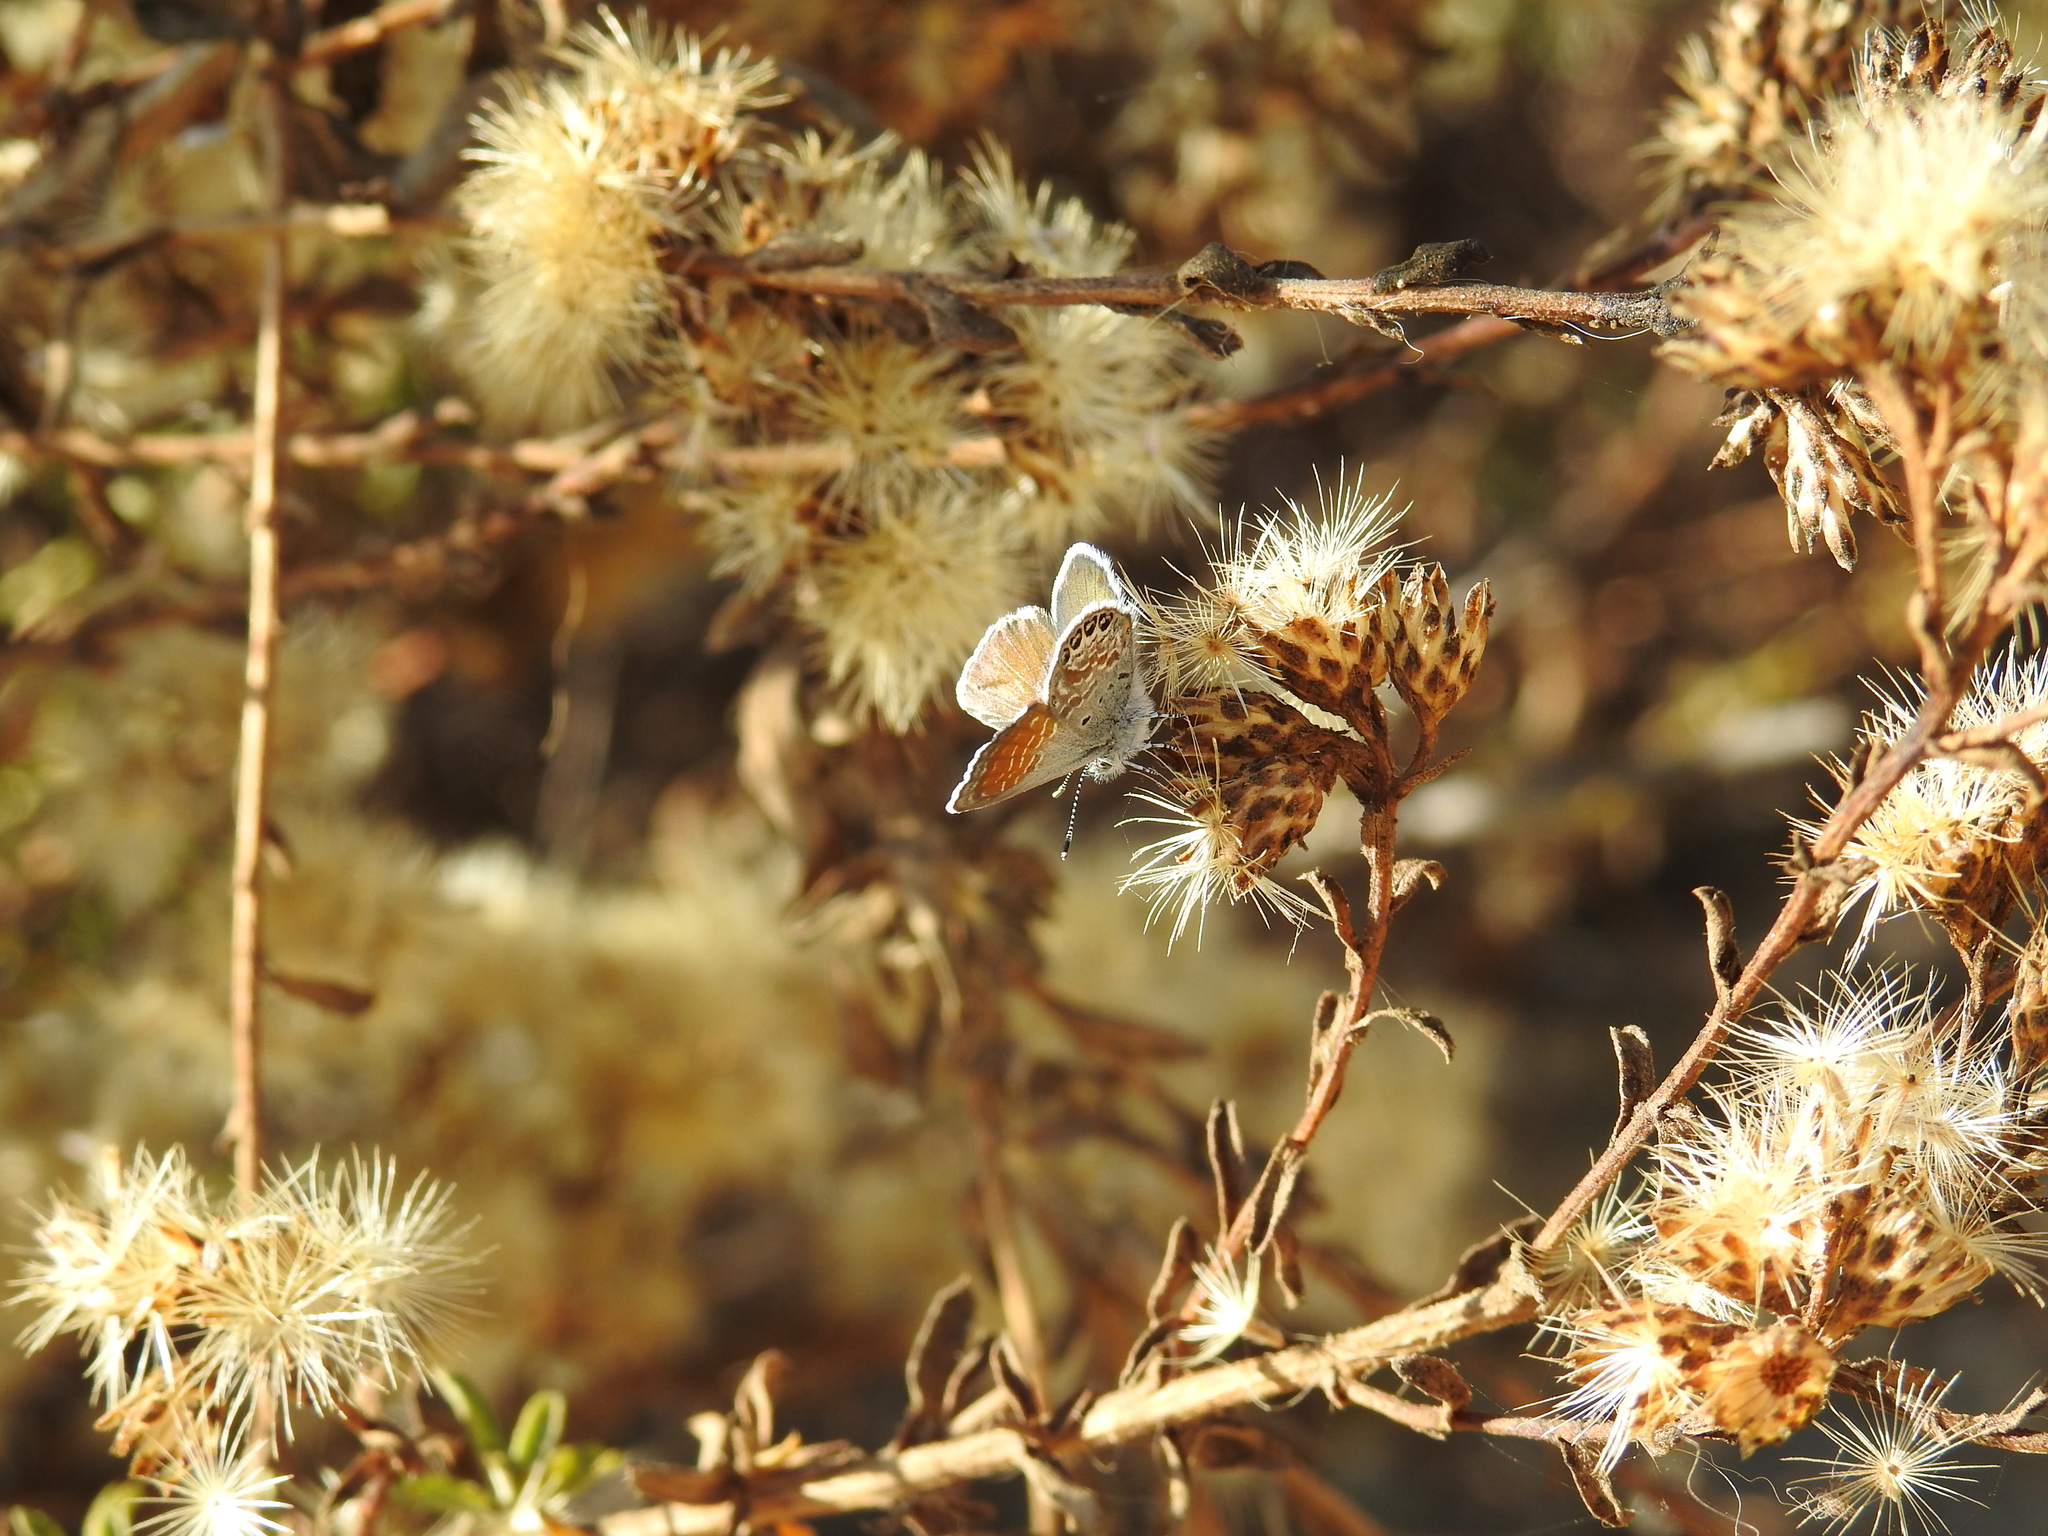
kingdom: Animalia
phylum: Arthropoda
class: Insecta
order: Lepidoptera
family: Lycaenidae
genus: Brephidium
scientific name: Brephidium exilis
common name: Pygmy blue
